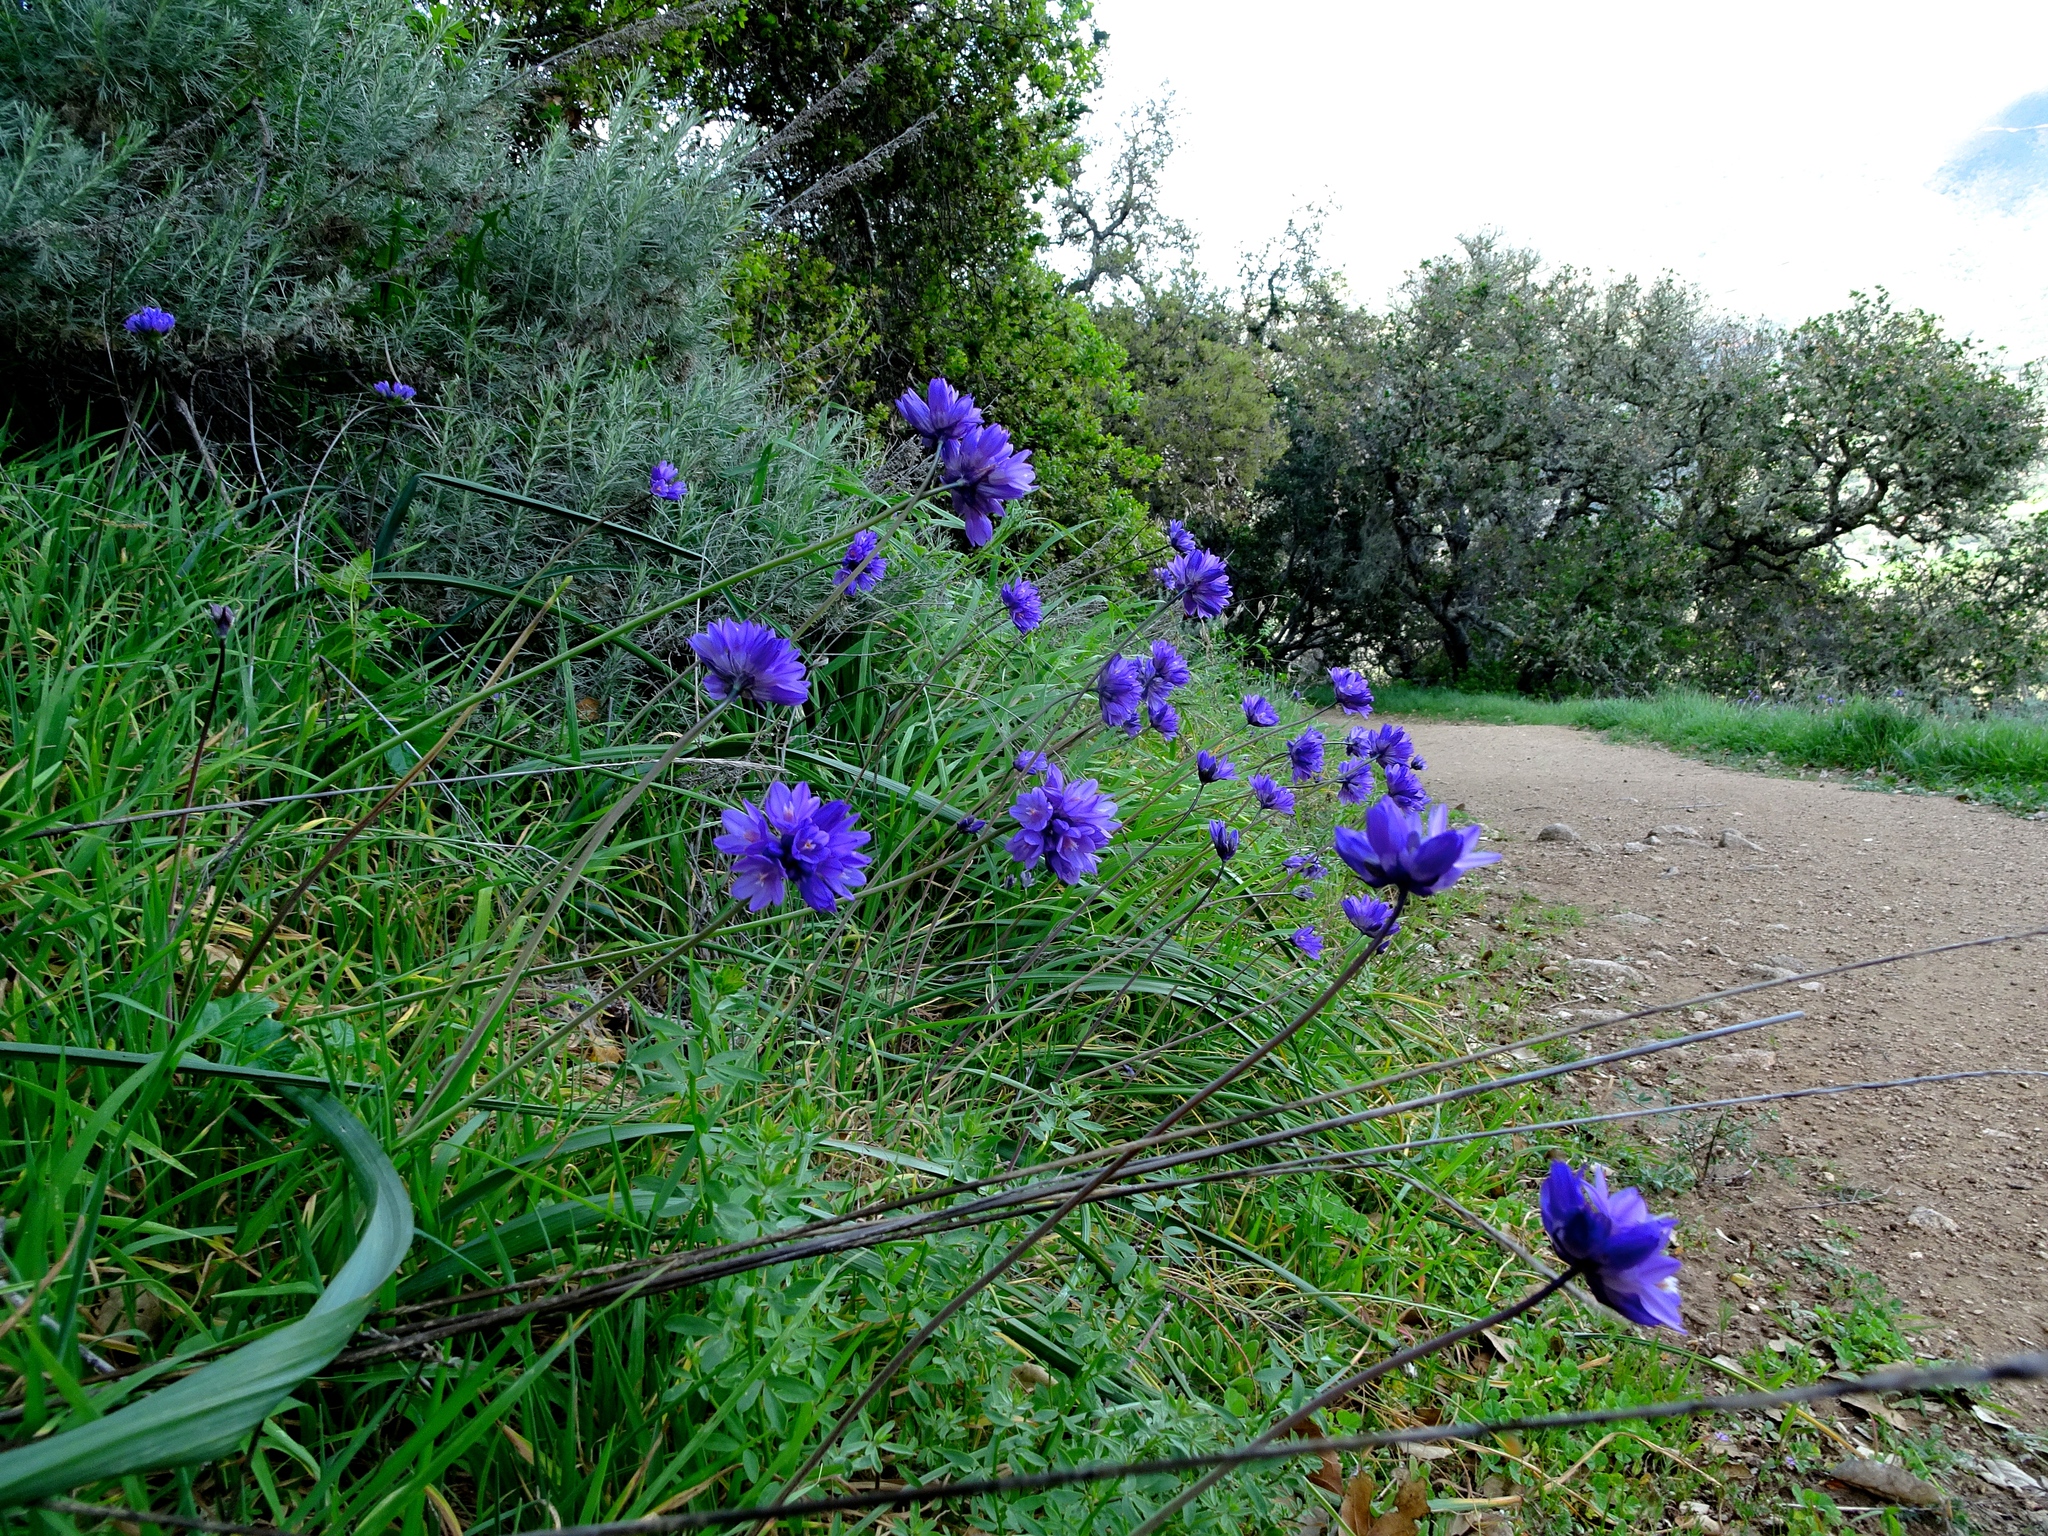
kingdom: Plantae
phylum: Tracheophyta
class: Liliopsida
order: Asparagales
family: Asparagaceae
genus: Dipterostemon
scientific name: Dipterostemon capitatus
